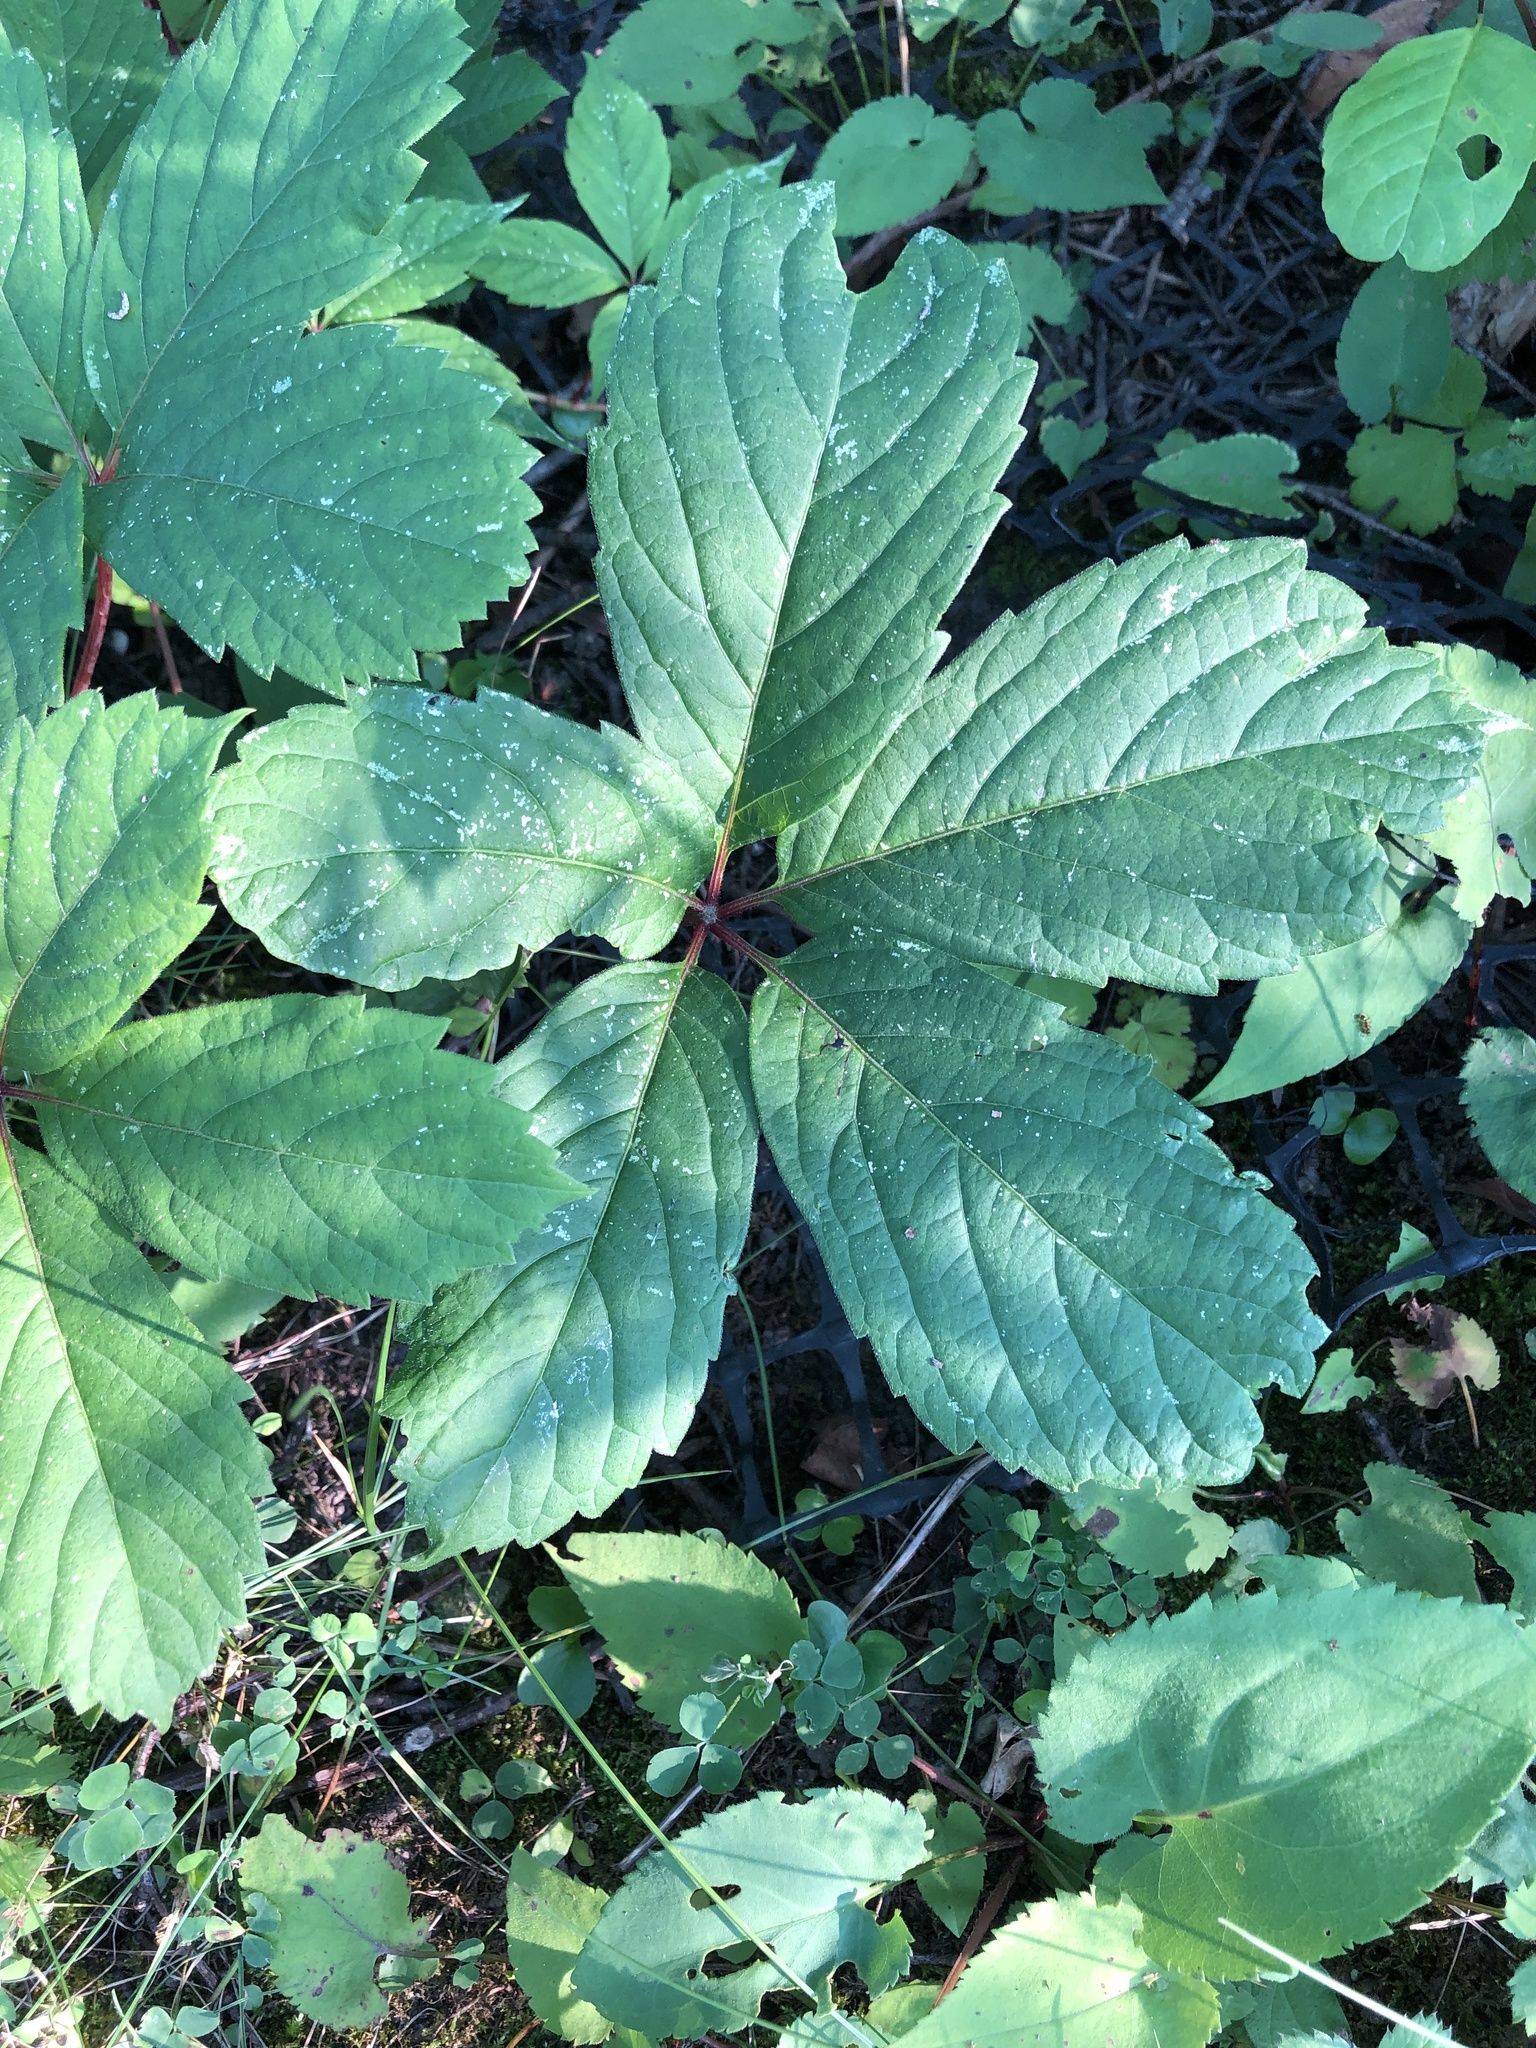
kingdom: Plantae
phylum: Tracheophyta
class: Magnoliopsida
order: Vitales
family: Vitaceae
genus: Parthenocissus
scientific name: Parthenocissus inserta
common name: False virginia-creeper
